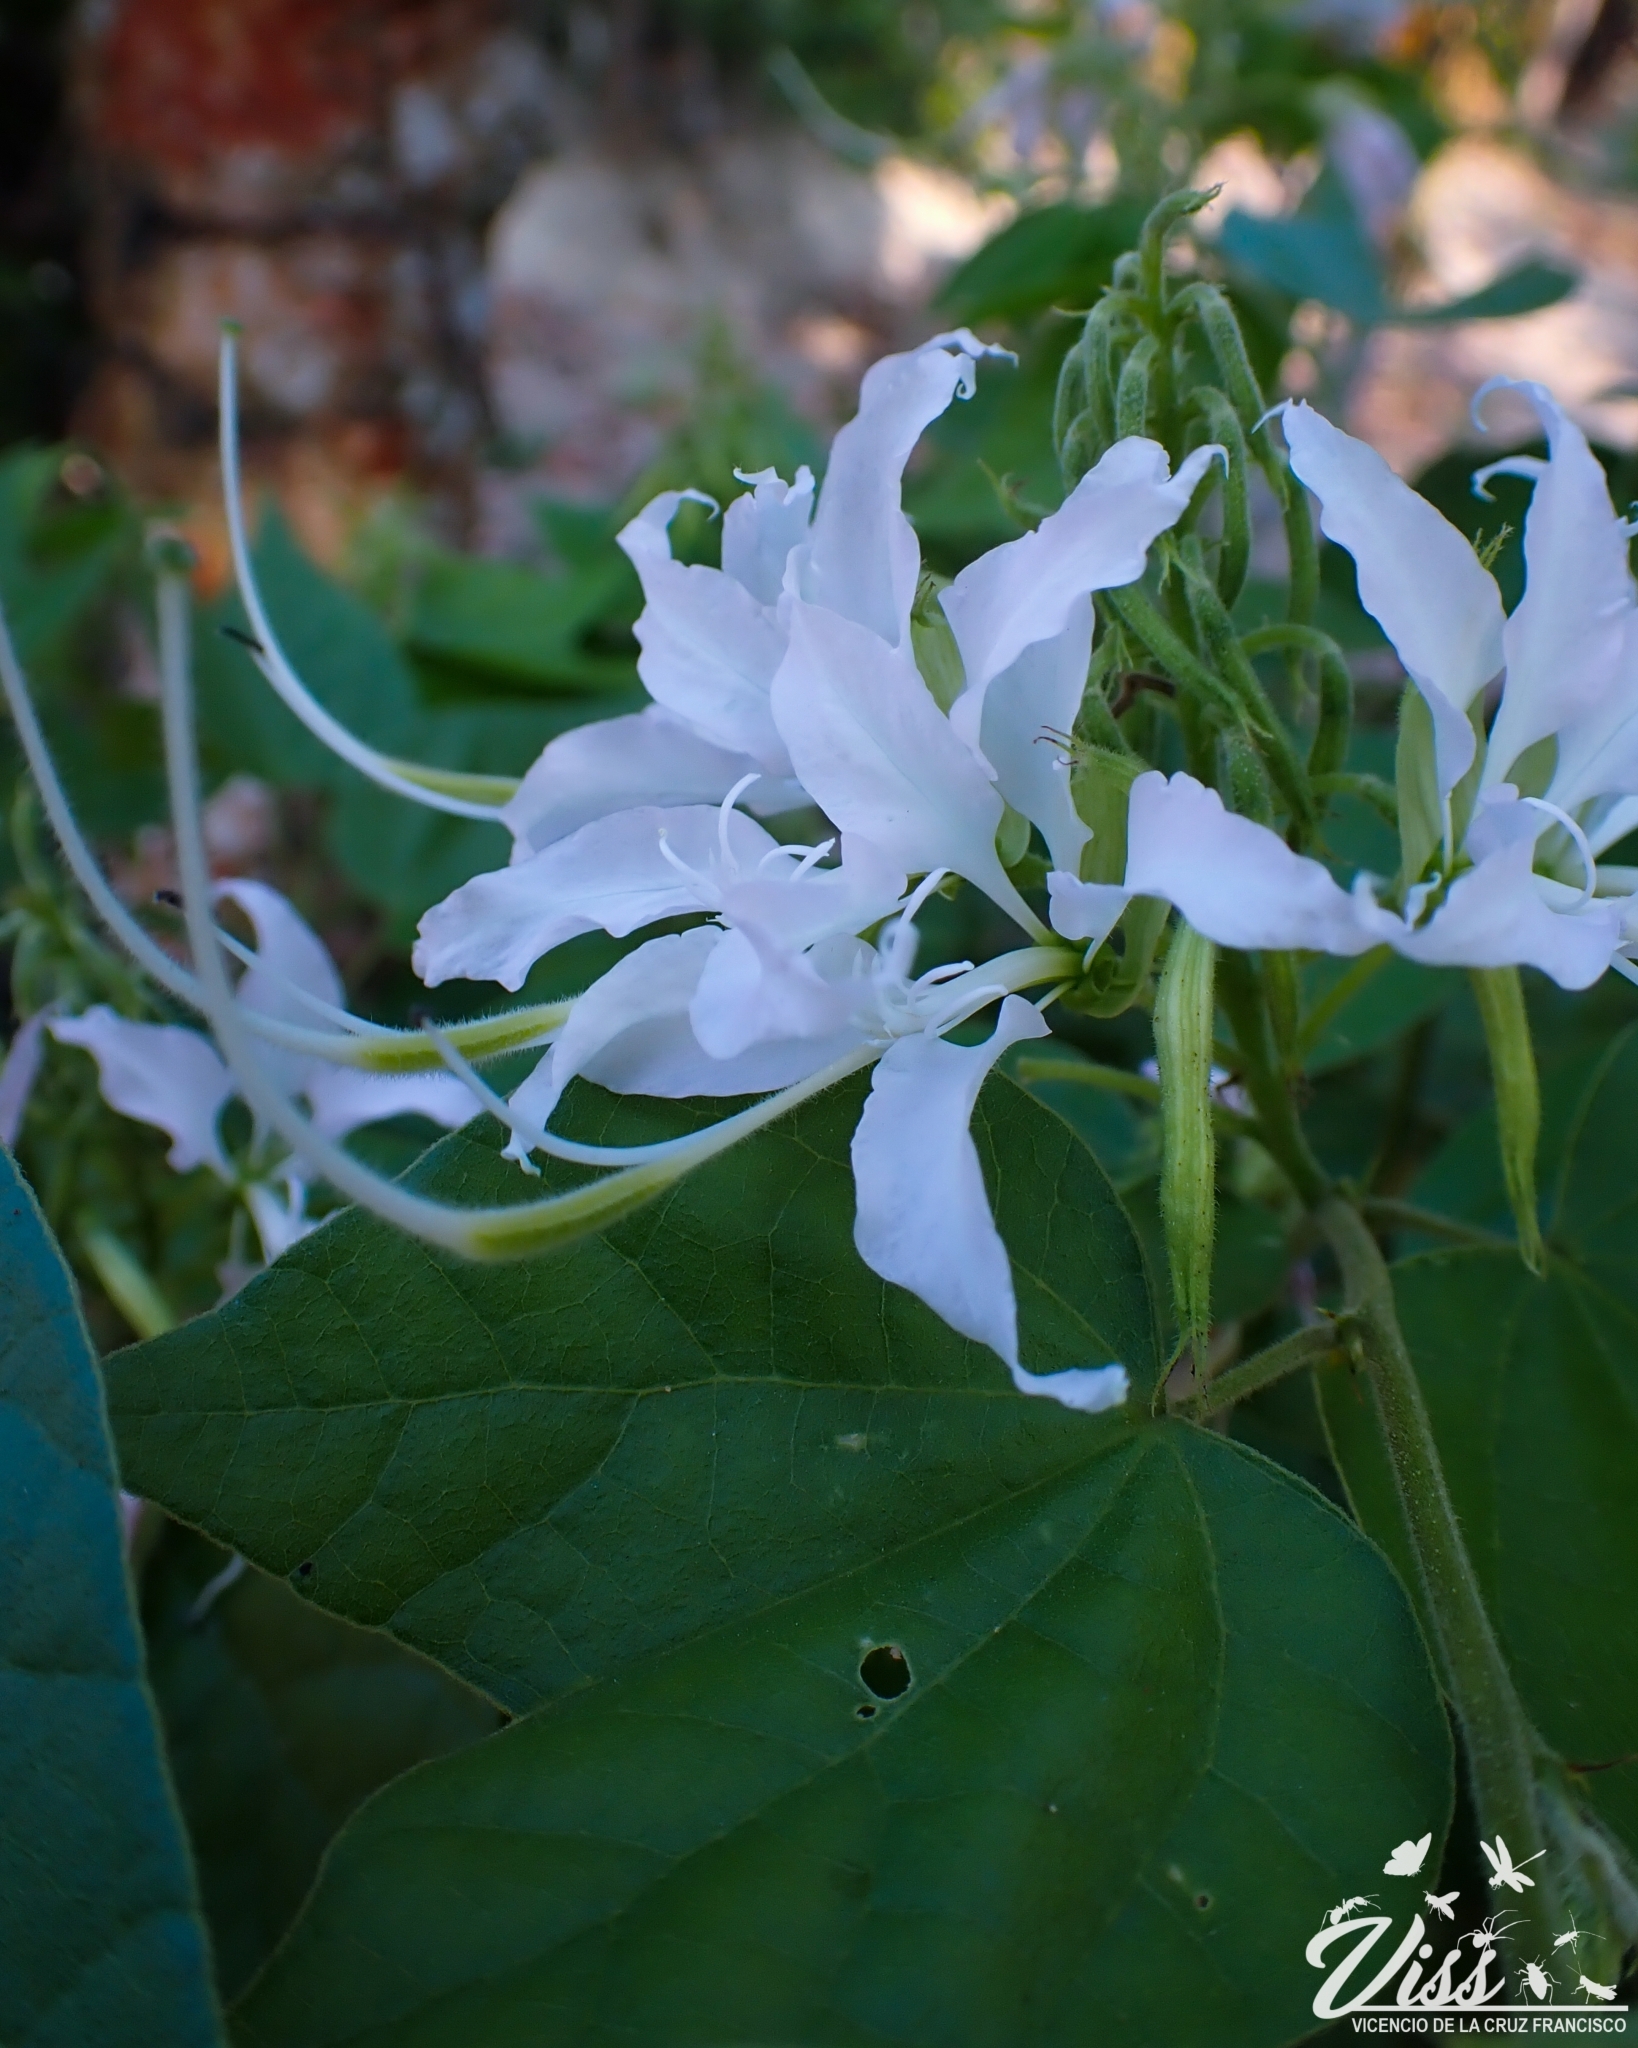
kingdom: Plantae
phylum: Tracheophyta
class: Magnoliopsida
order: Fabales
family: Fabaceae
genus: Bauhinia
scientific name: Bauhinia divaricata
